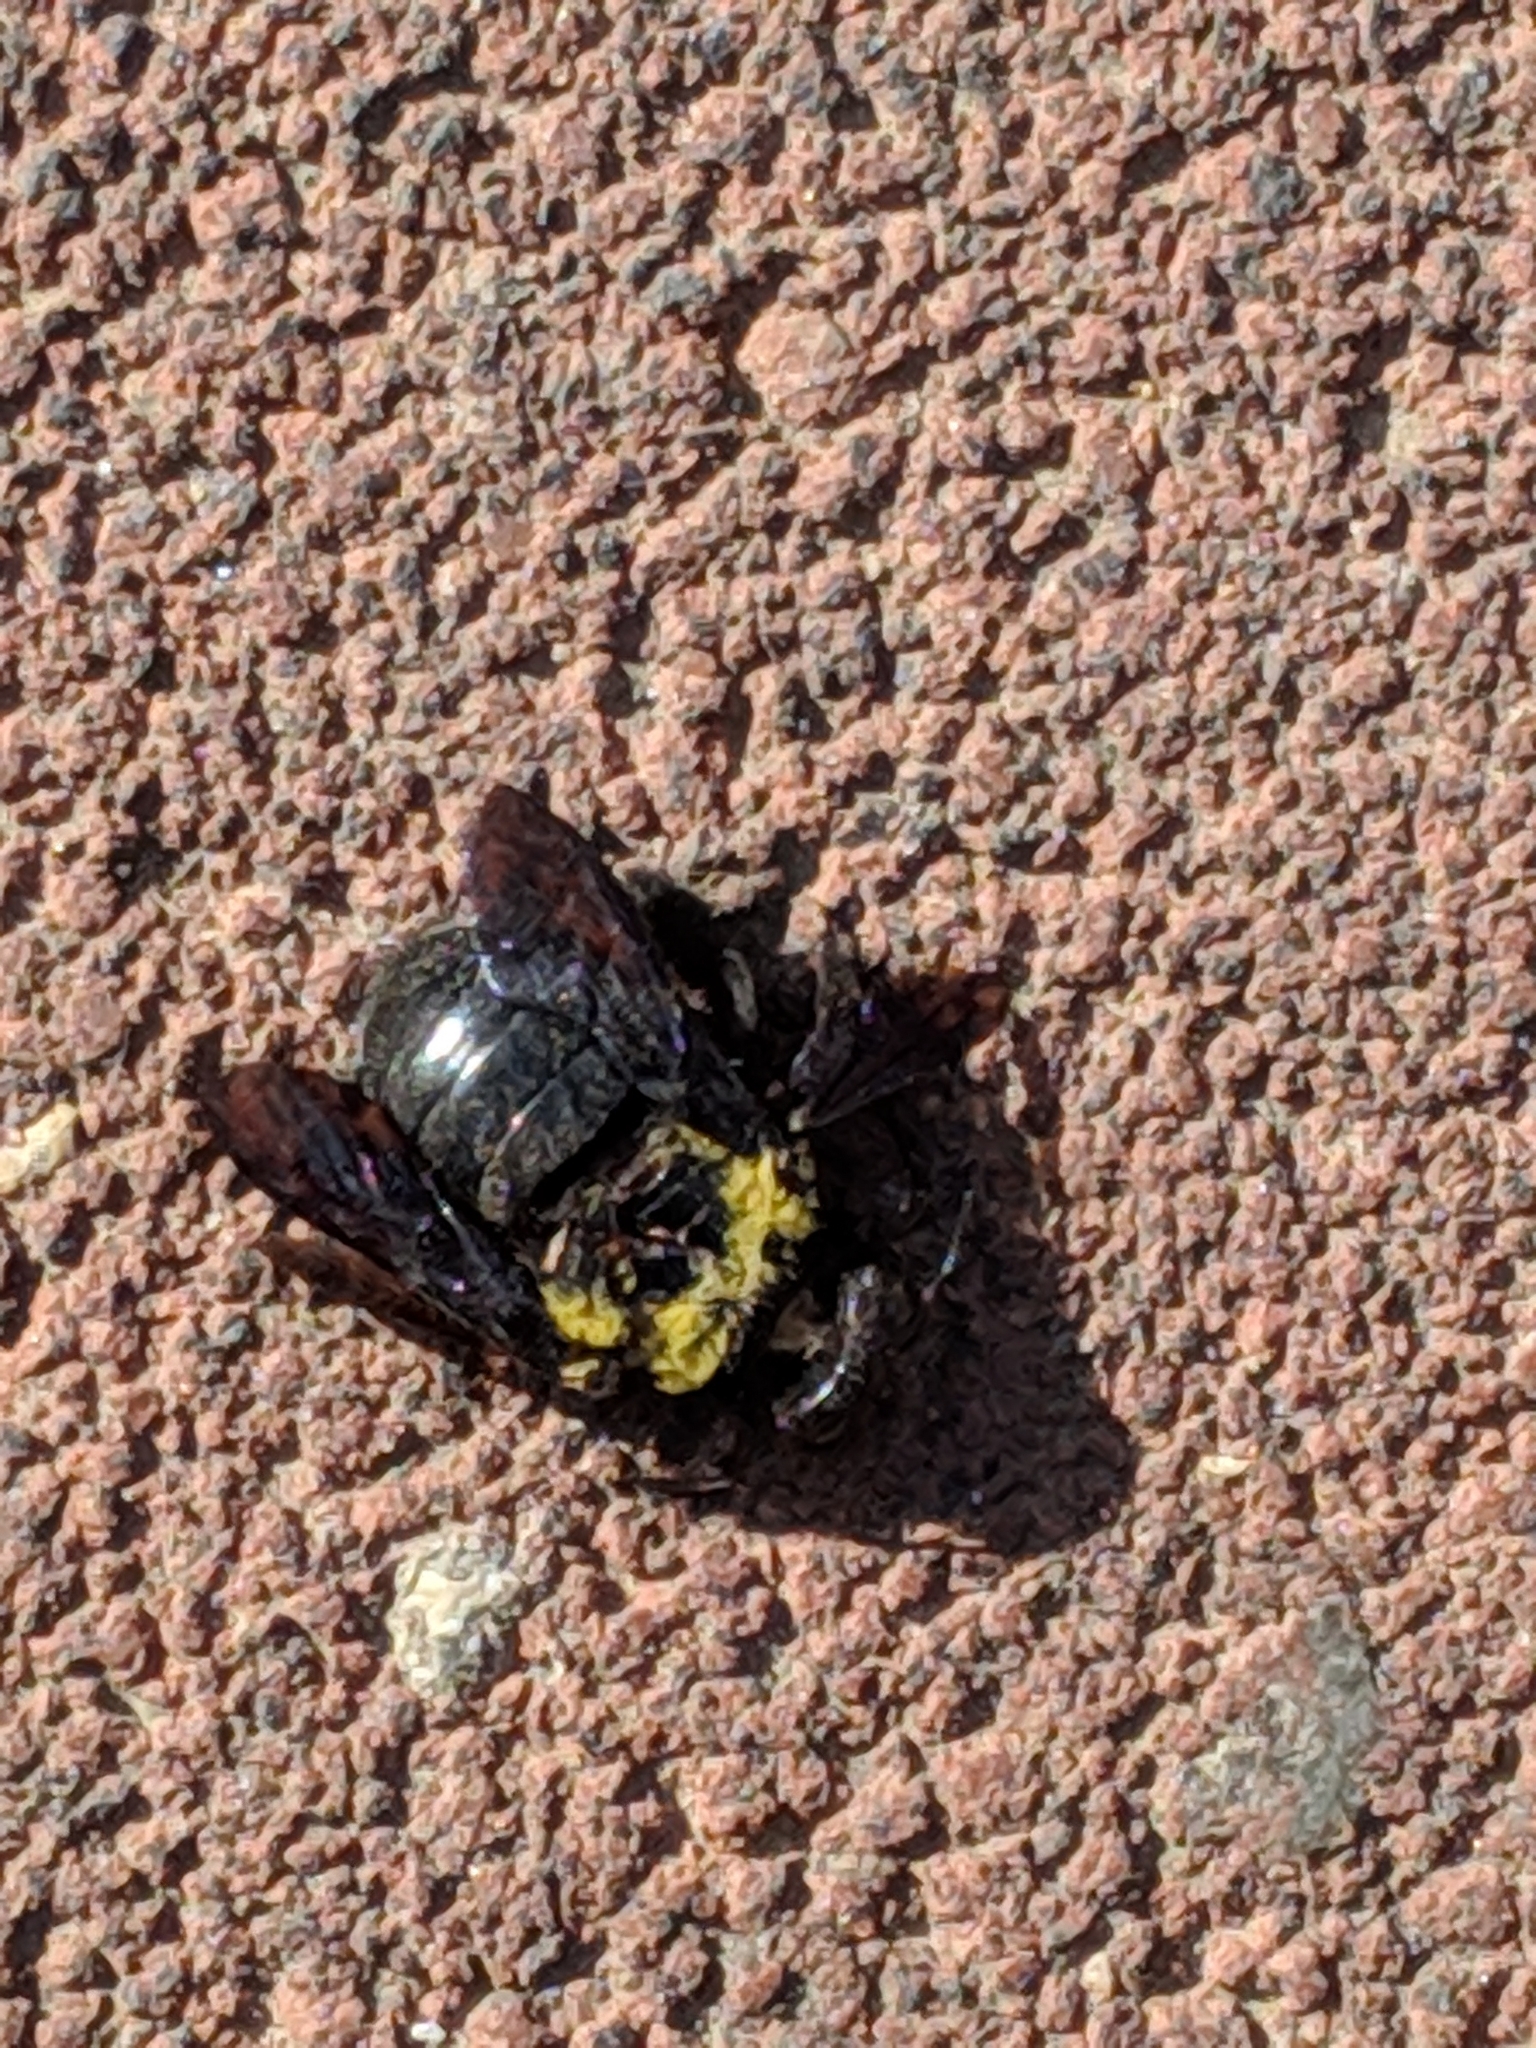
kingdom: Animalia
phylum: Arthropoda
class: Insecta
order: Hymenoptera
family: Apidae
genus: Xylocopa
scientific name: Xylocopa pubescens
